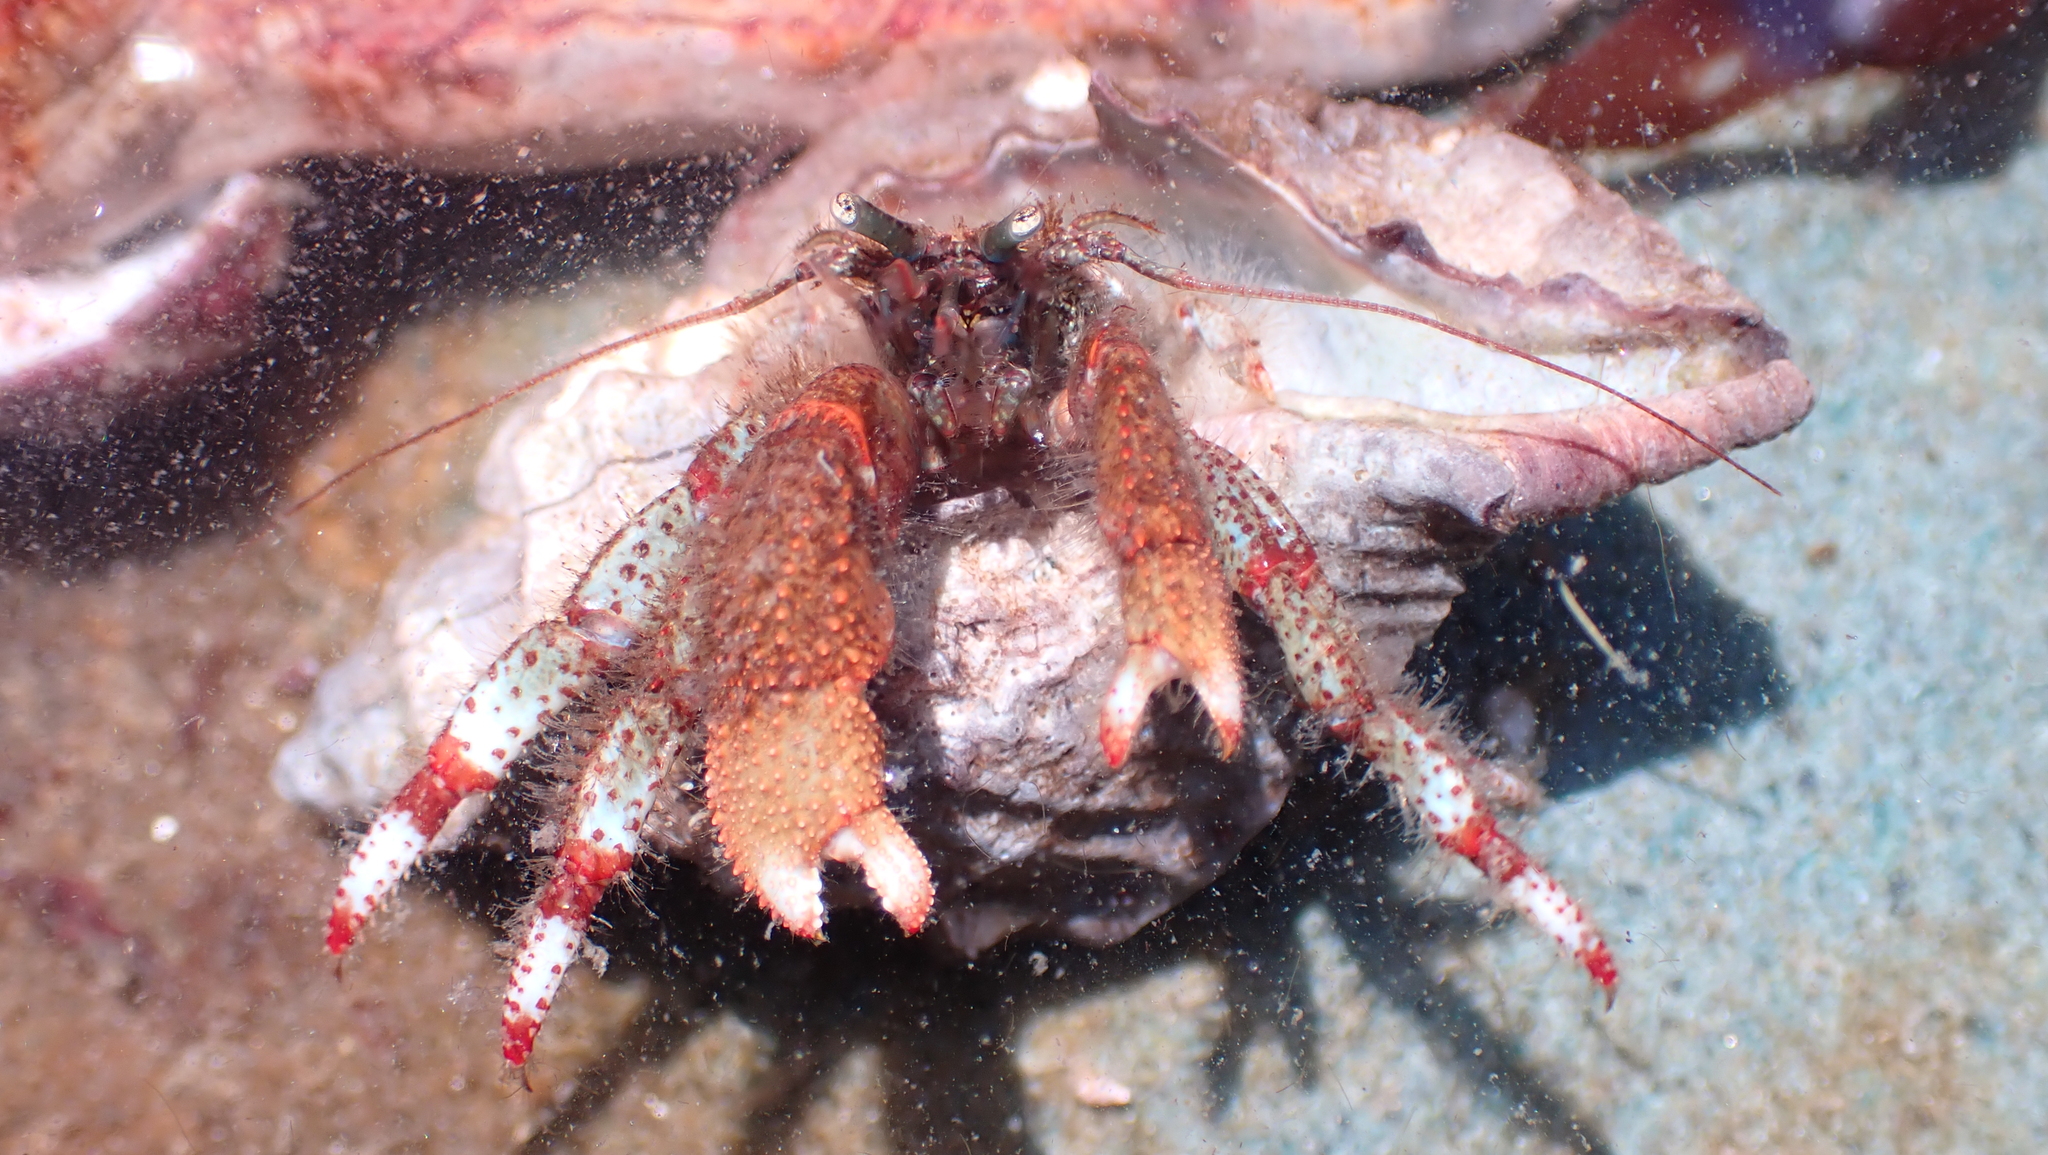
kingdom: Animalia
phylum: Arthropoda
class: Malacostraca
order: Decapoda
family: Paguridae
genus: Pagurus
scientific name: Pagurus beringanus
